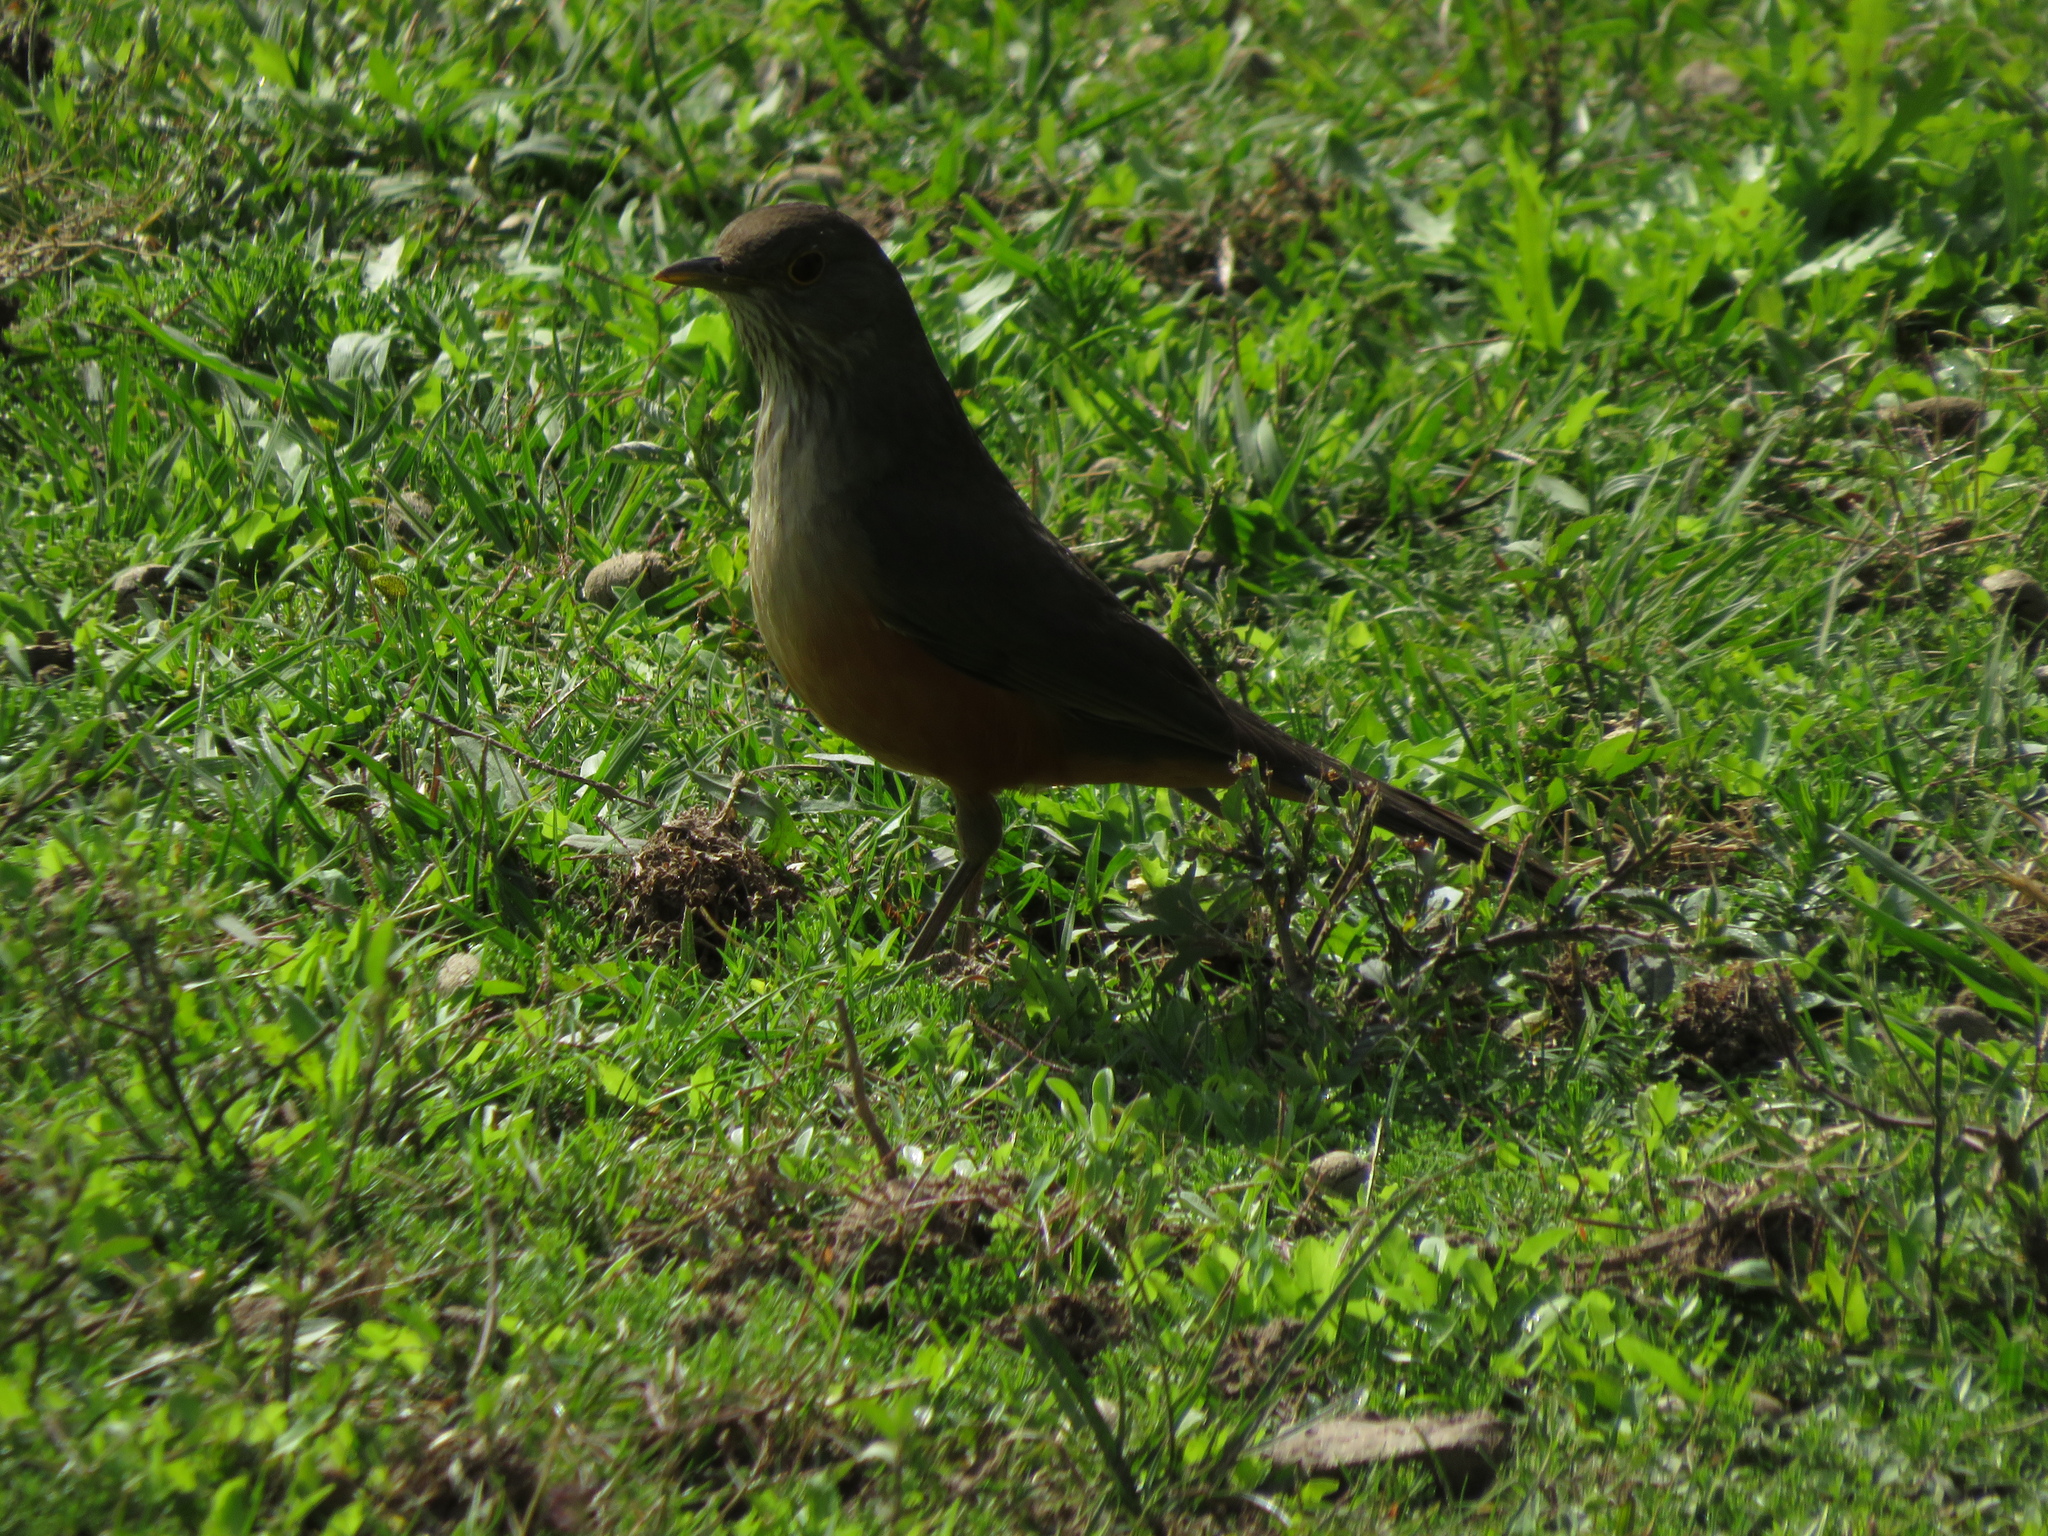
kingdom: Animalia
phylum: Chordata
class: Aves
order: Passeriformes
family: Turdidae
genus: Turdus
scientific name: Turdus rufiventris
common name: Rufous-bellied thrush
